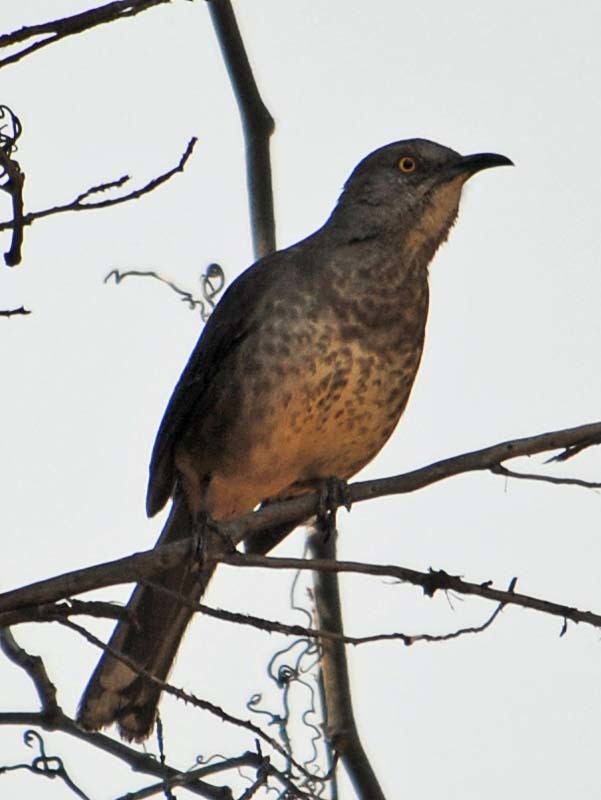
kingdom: Animalia
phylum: Chordata
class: Aves
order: Passeriformes
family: Mimidae
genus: Toxostoma
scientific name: Toxostoma curvirostre
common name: Curve-billed thrasher
